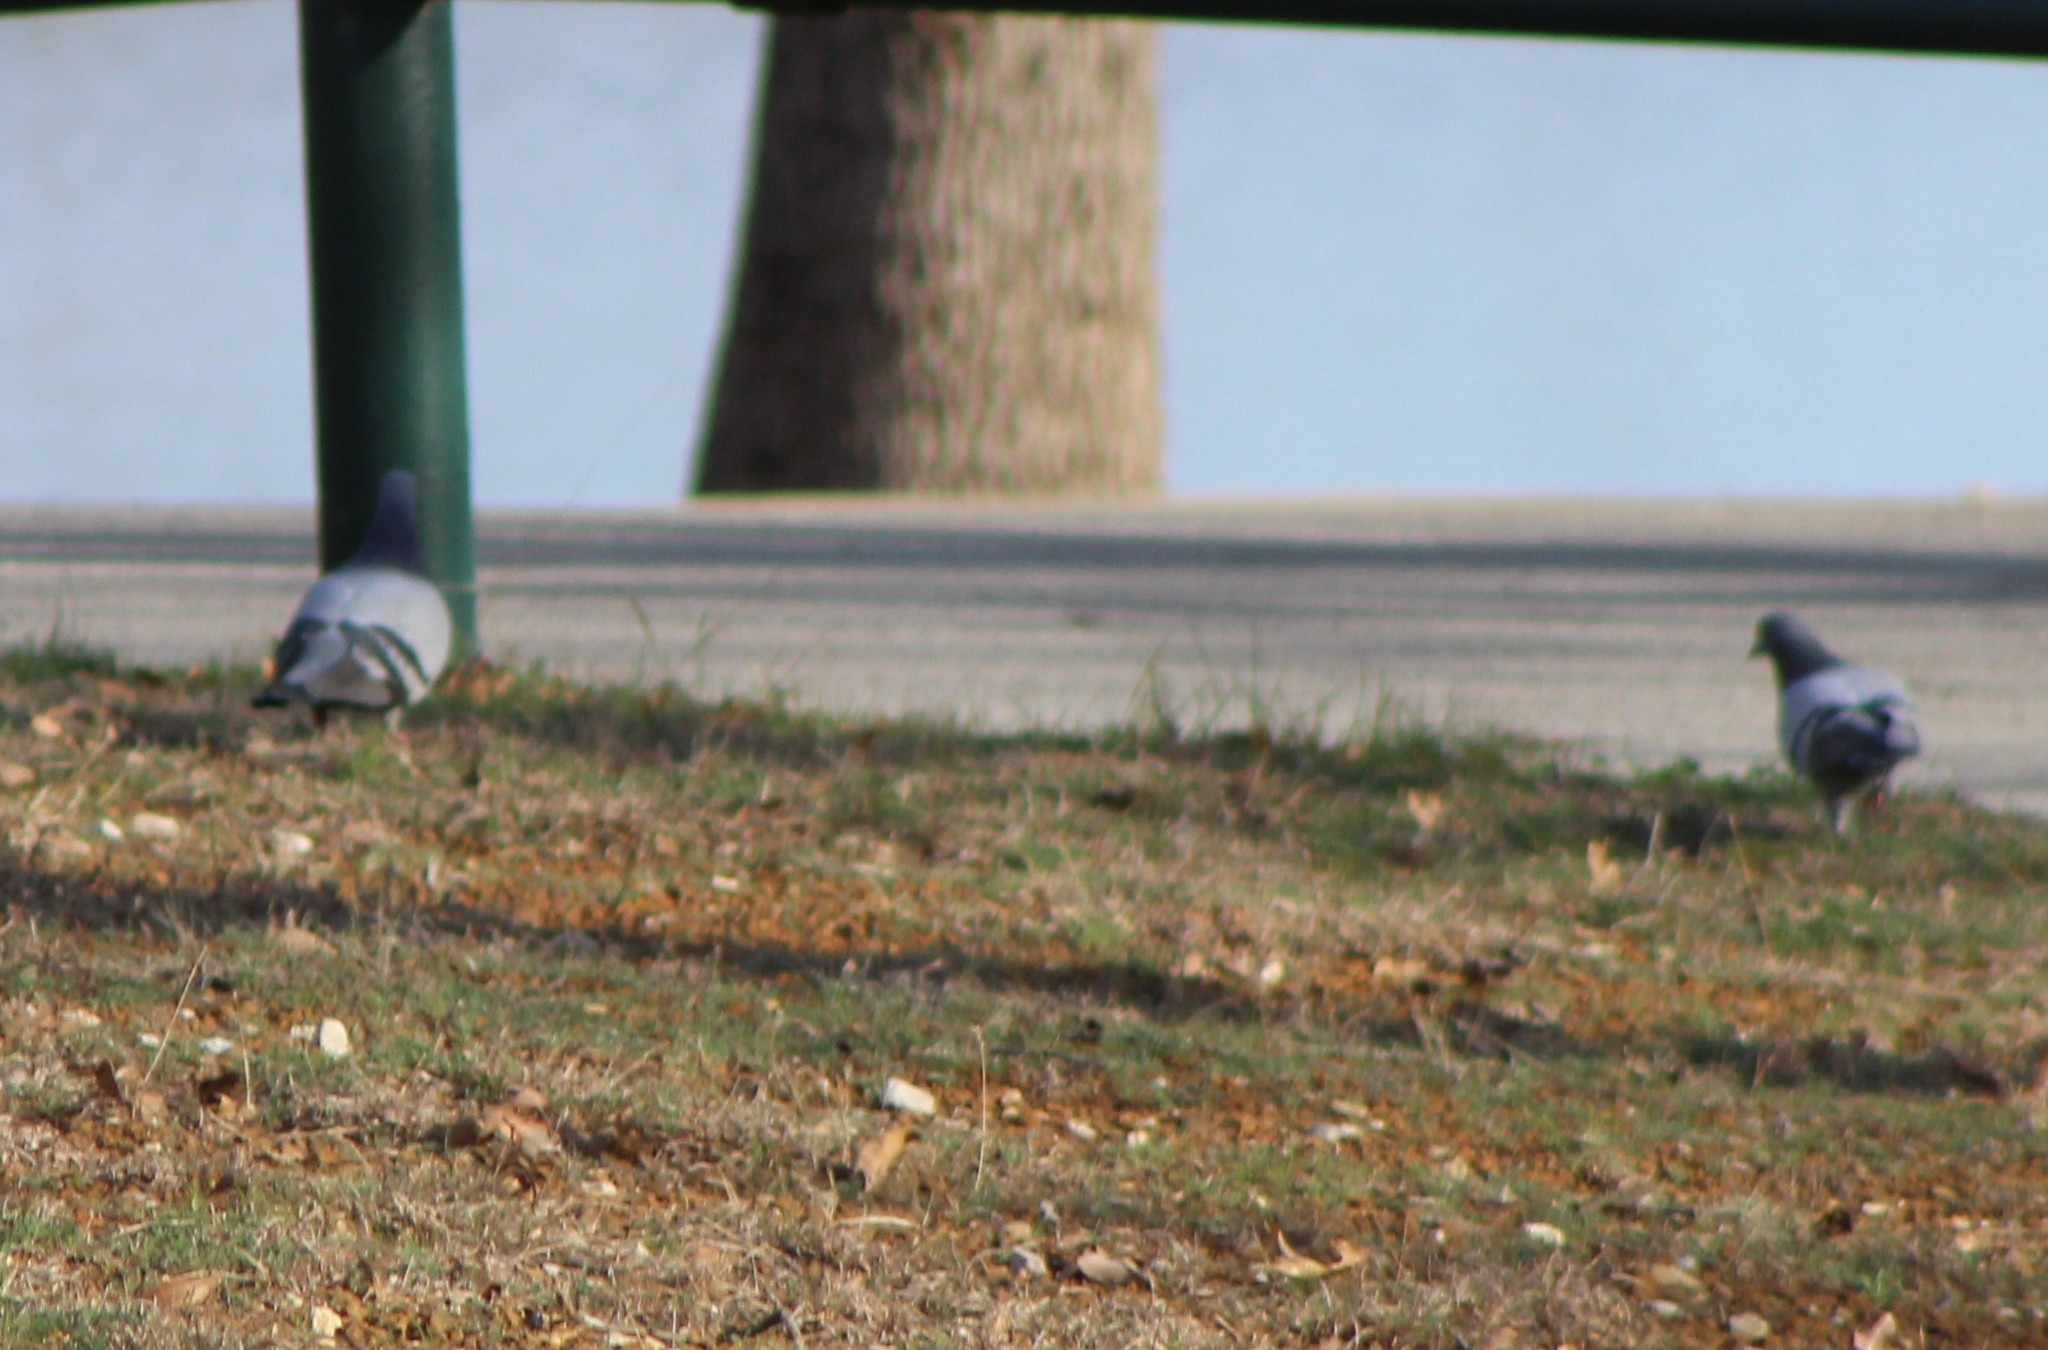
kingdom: Animalia
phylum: Chordata
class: Aves
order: Columbiformes
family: Columbidae
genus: Columba
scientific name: Columba livia
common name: Rock pigeon
